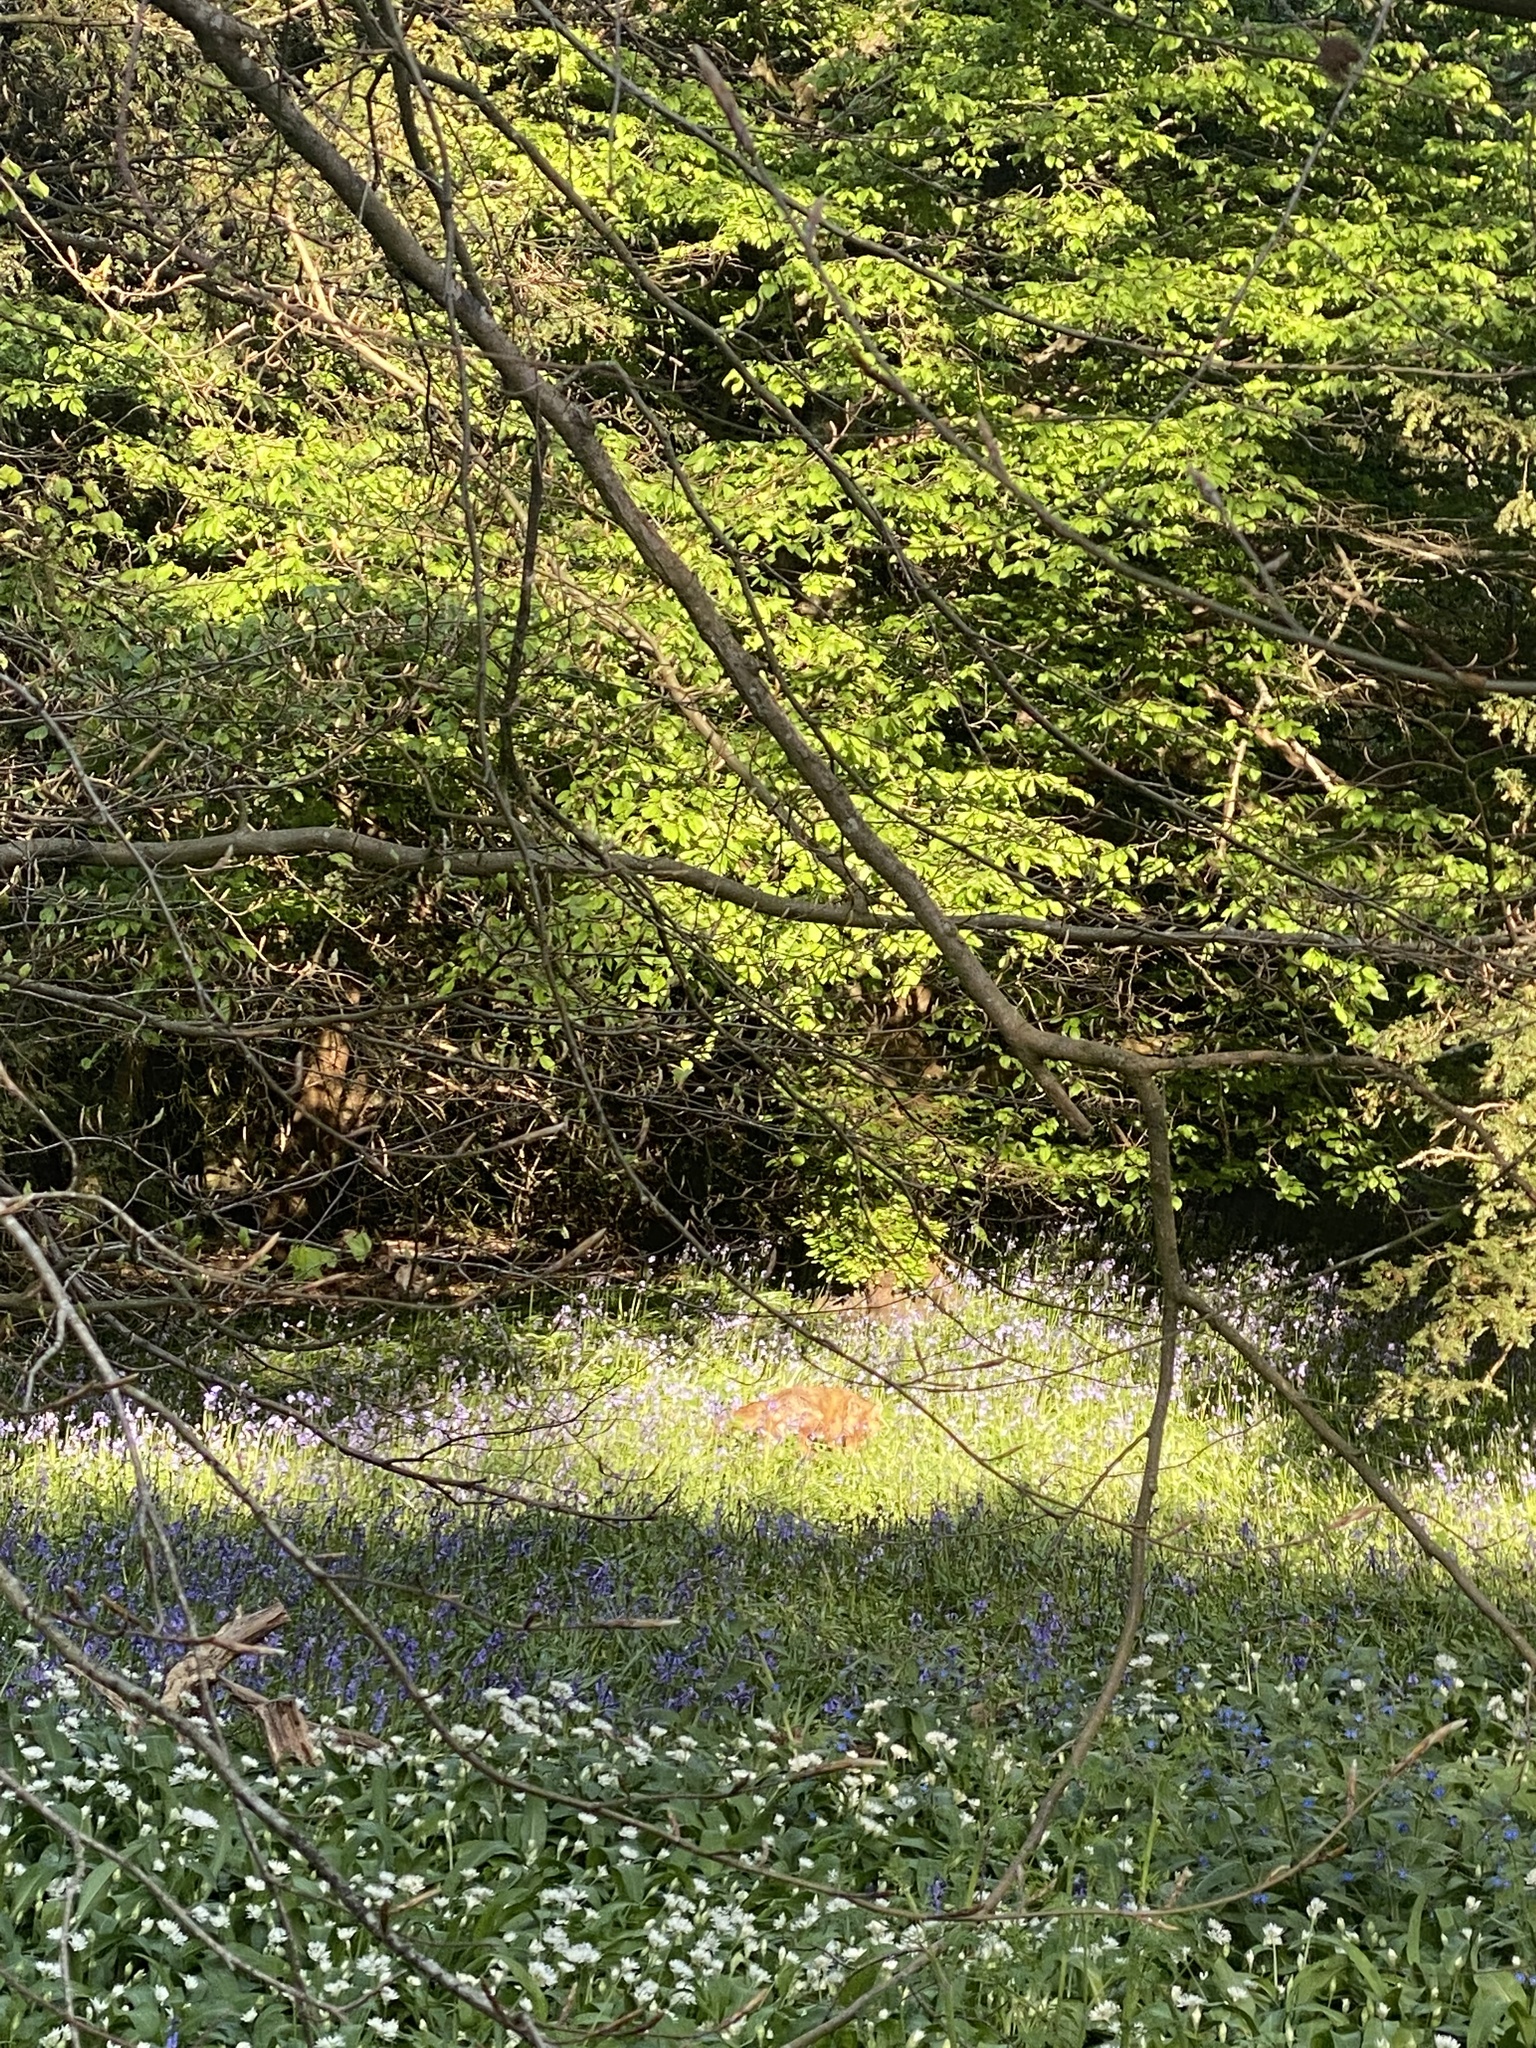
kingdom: Animalia
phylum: Chordata
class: Mammalia
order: Carnivora
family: Canidae
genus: Vulpes
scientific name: Vulpes vulpes
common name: Red fox
